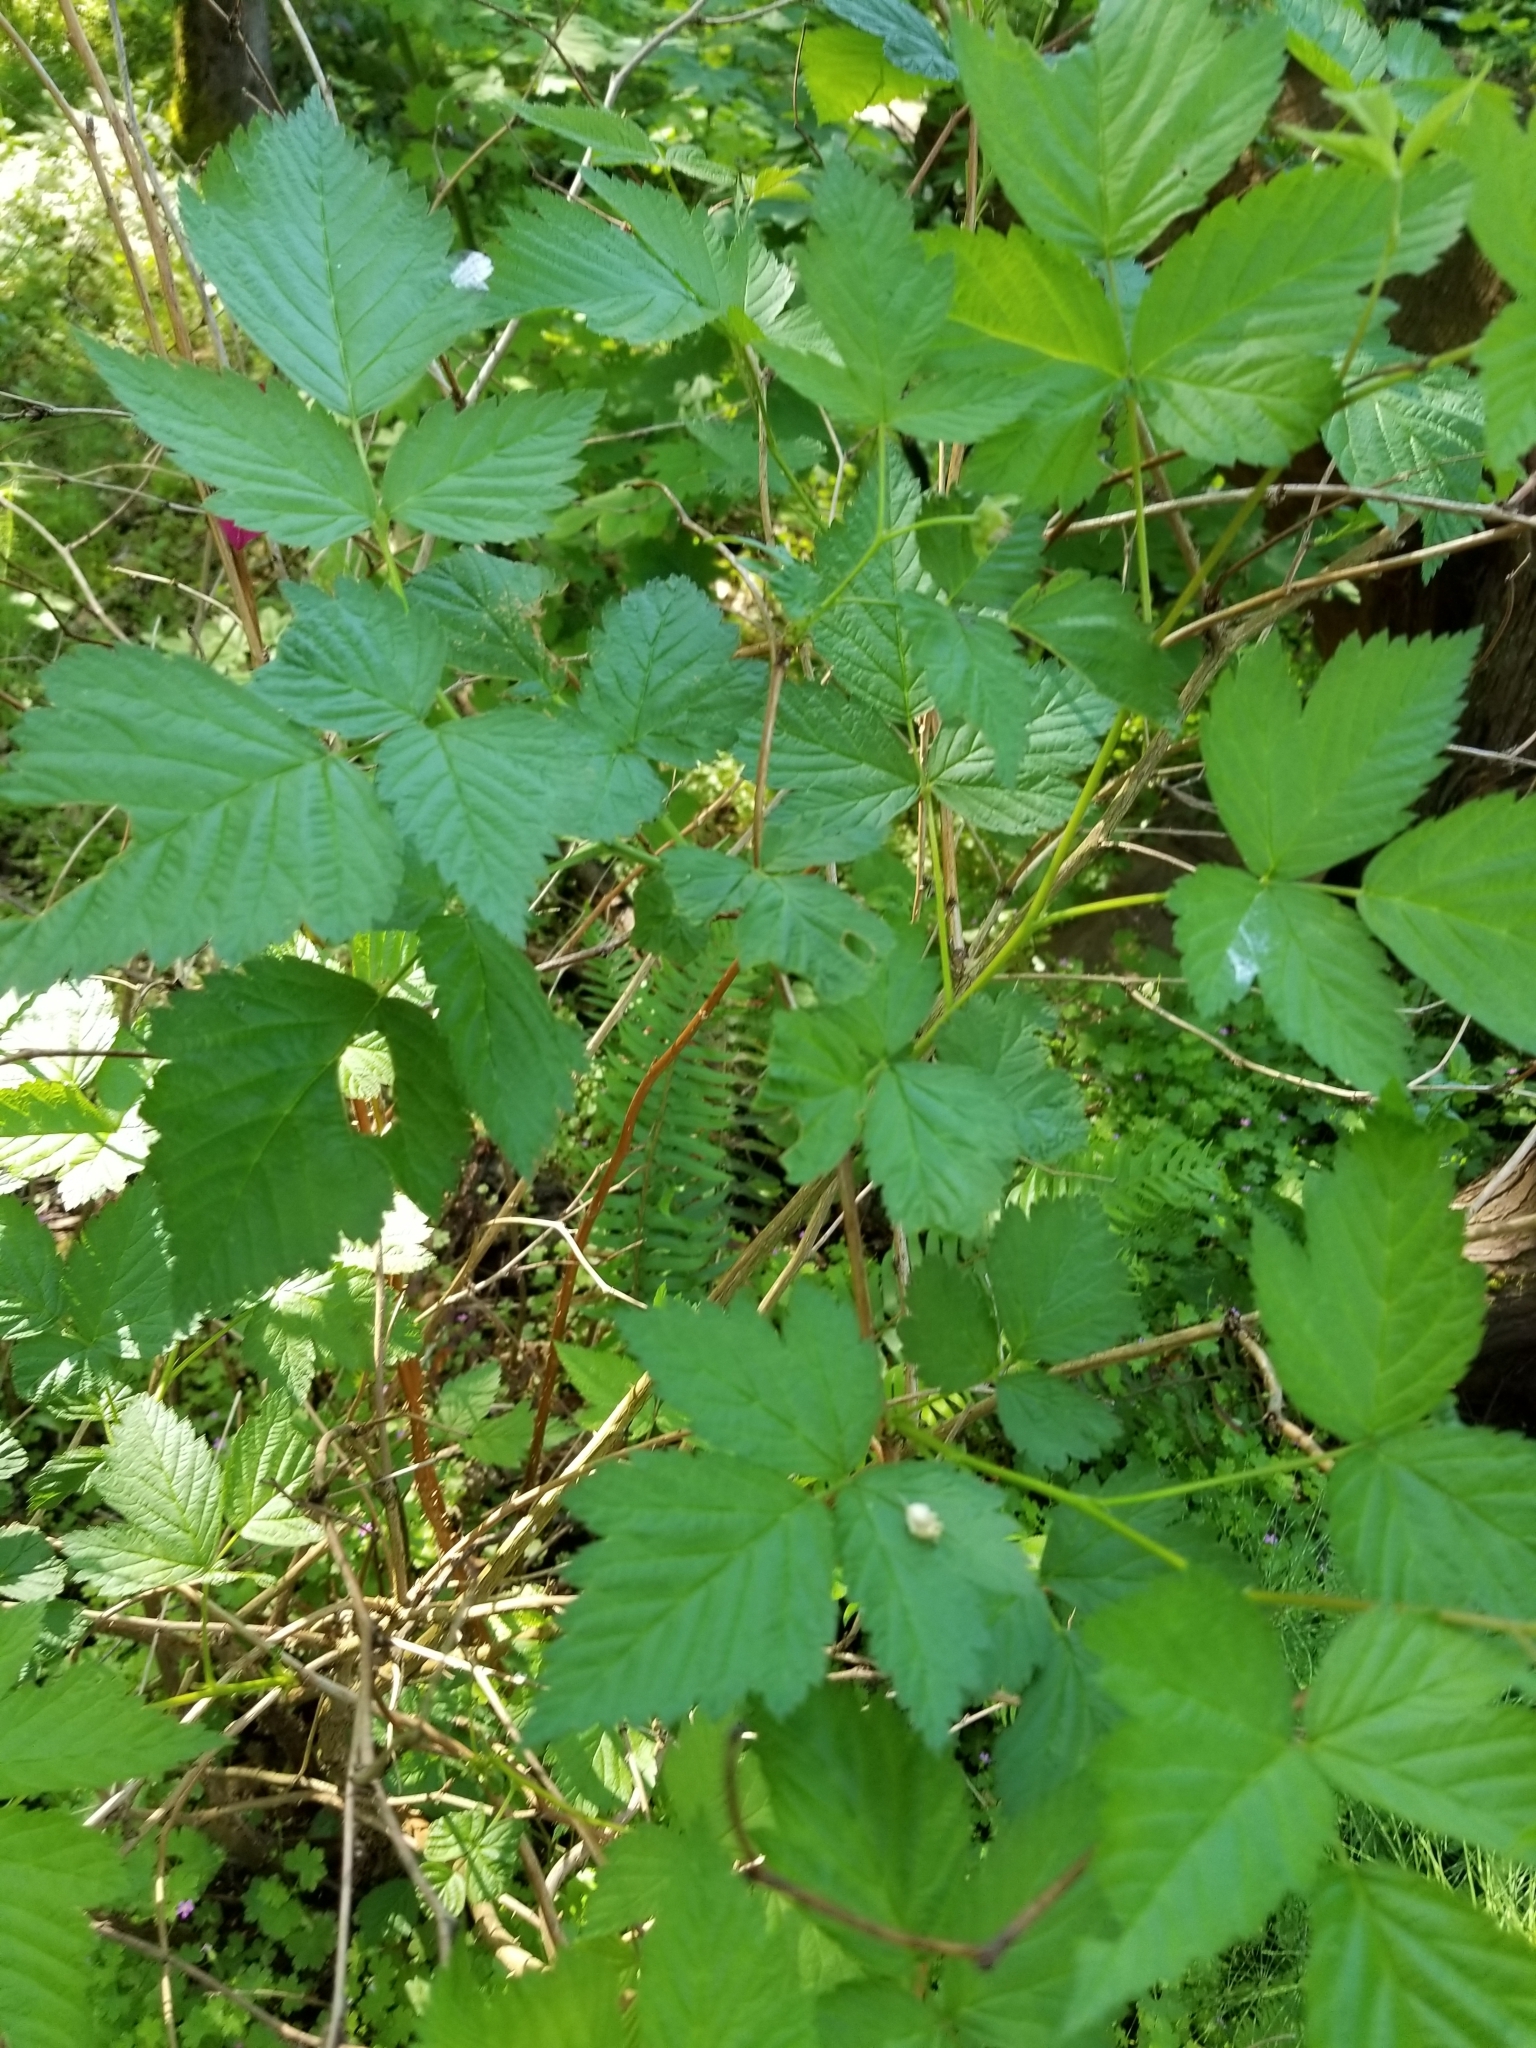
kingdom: Plantae
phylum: Tracheophyta
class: Magnoliopsida
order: Rosales
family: Rosaceae
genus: Rubus
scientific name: Rubus spectabilis
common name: Salmonberry
